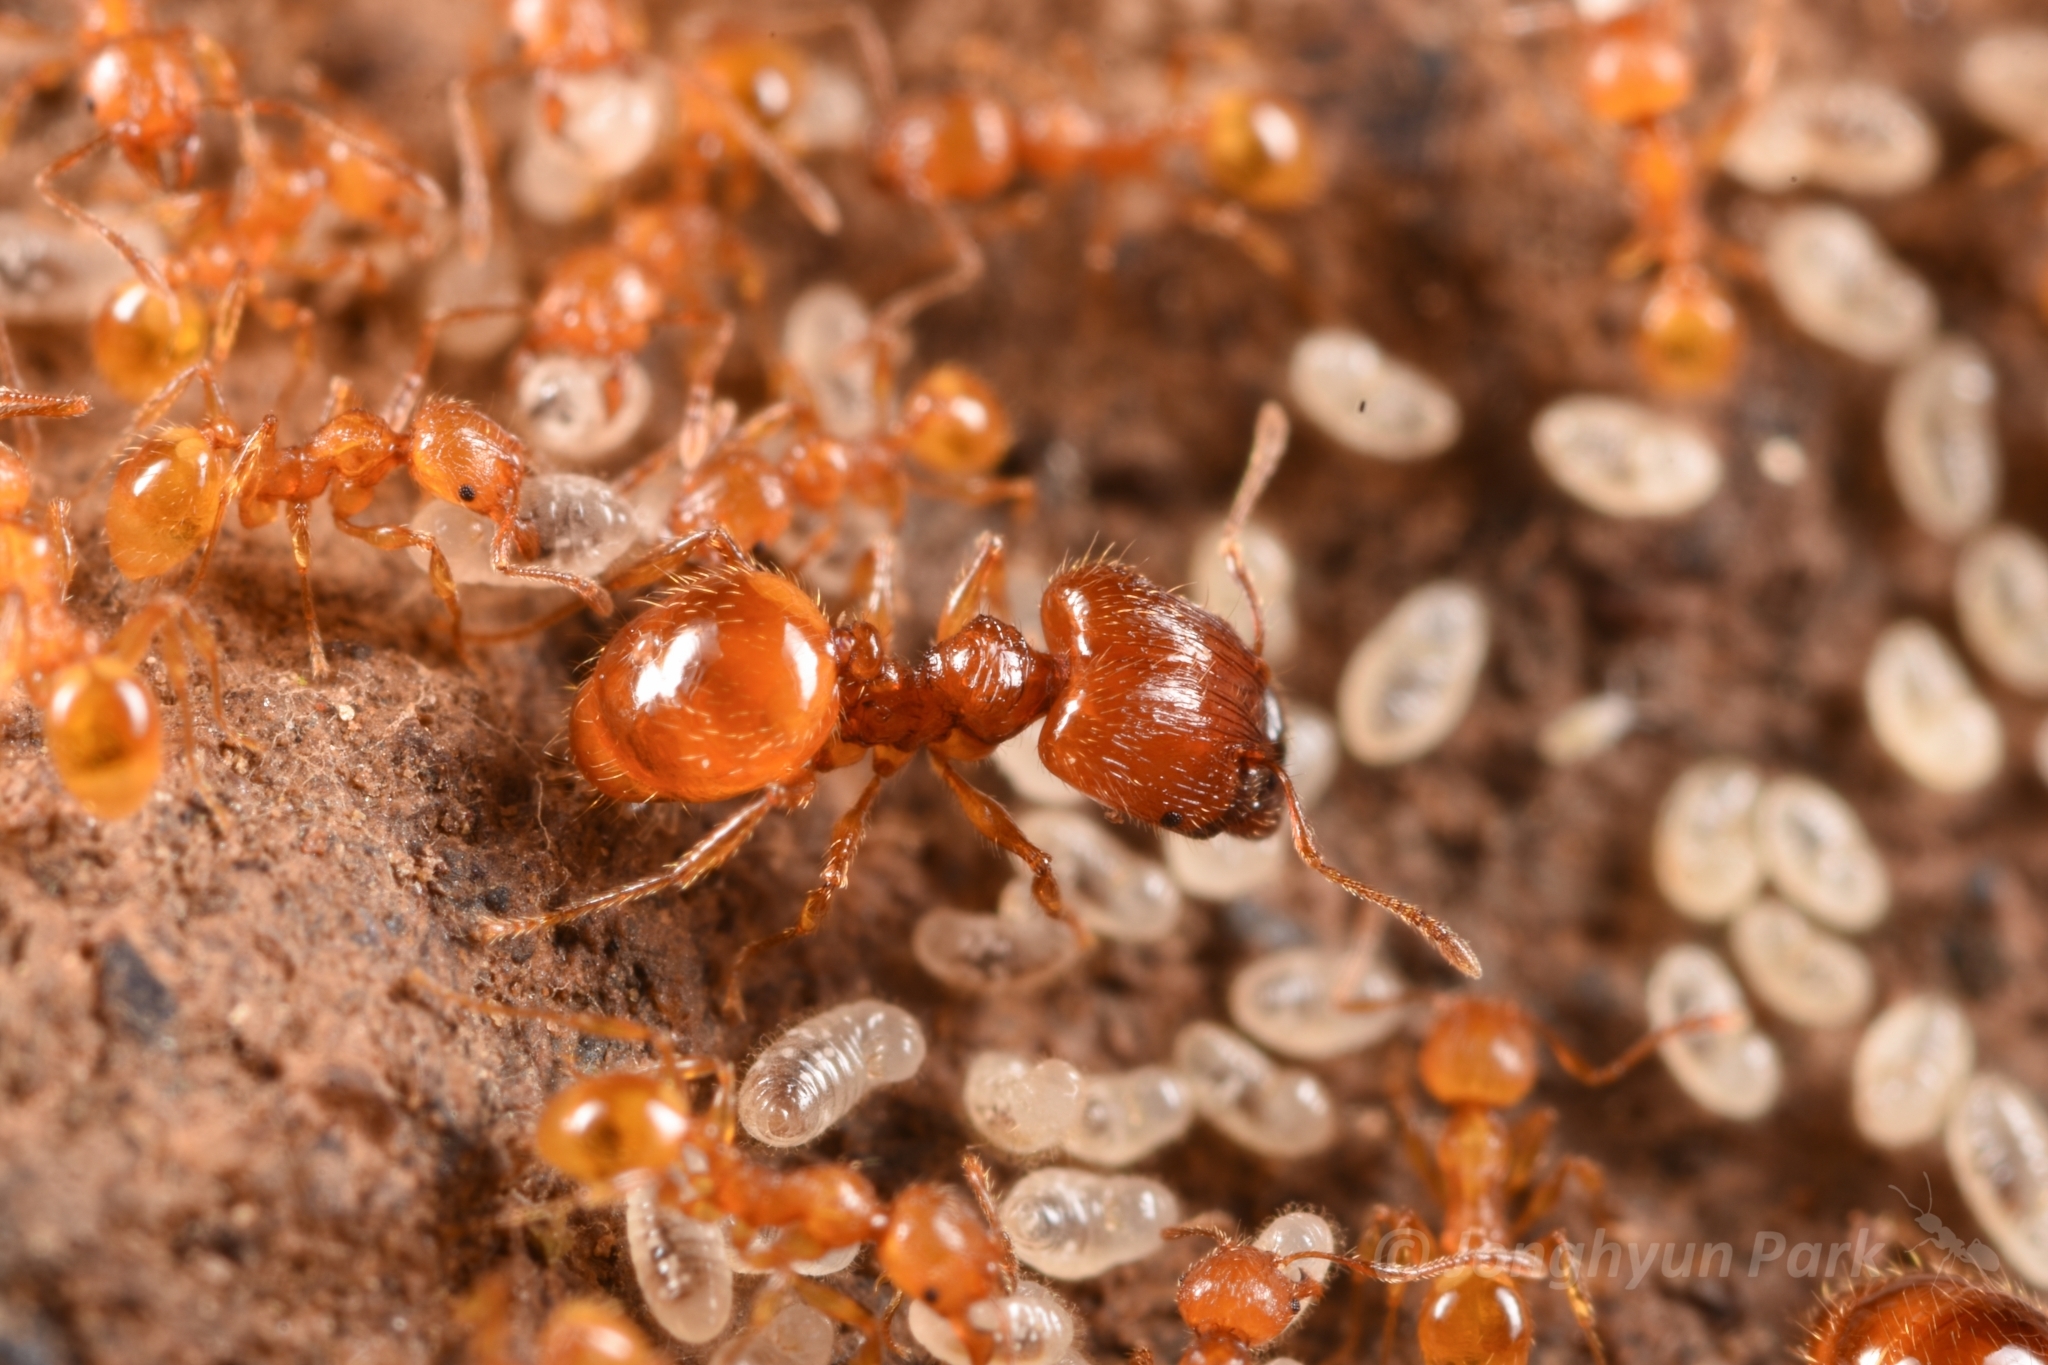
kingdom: Animalia
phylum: Arthropoda
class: Insecta
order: Hymenoptera
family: Formicidae
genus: Pheidole
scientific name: Pheidole fervida
